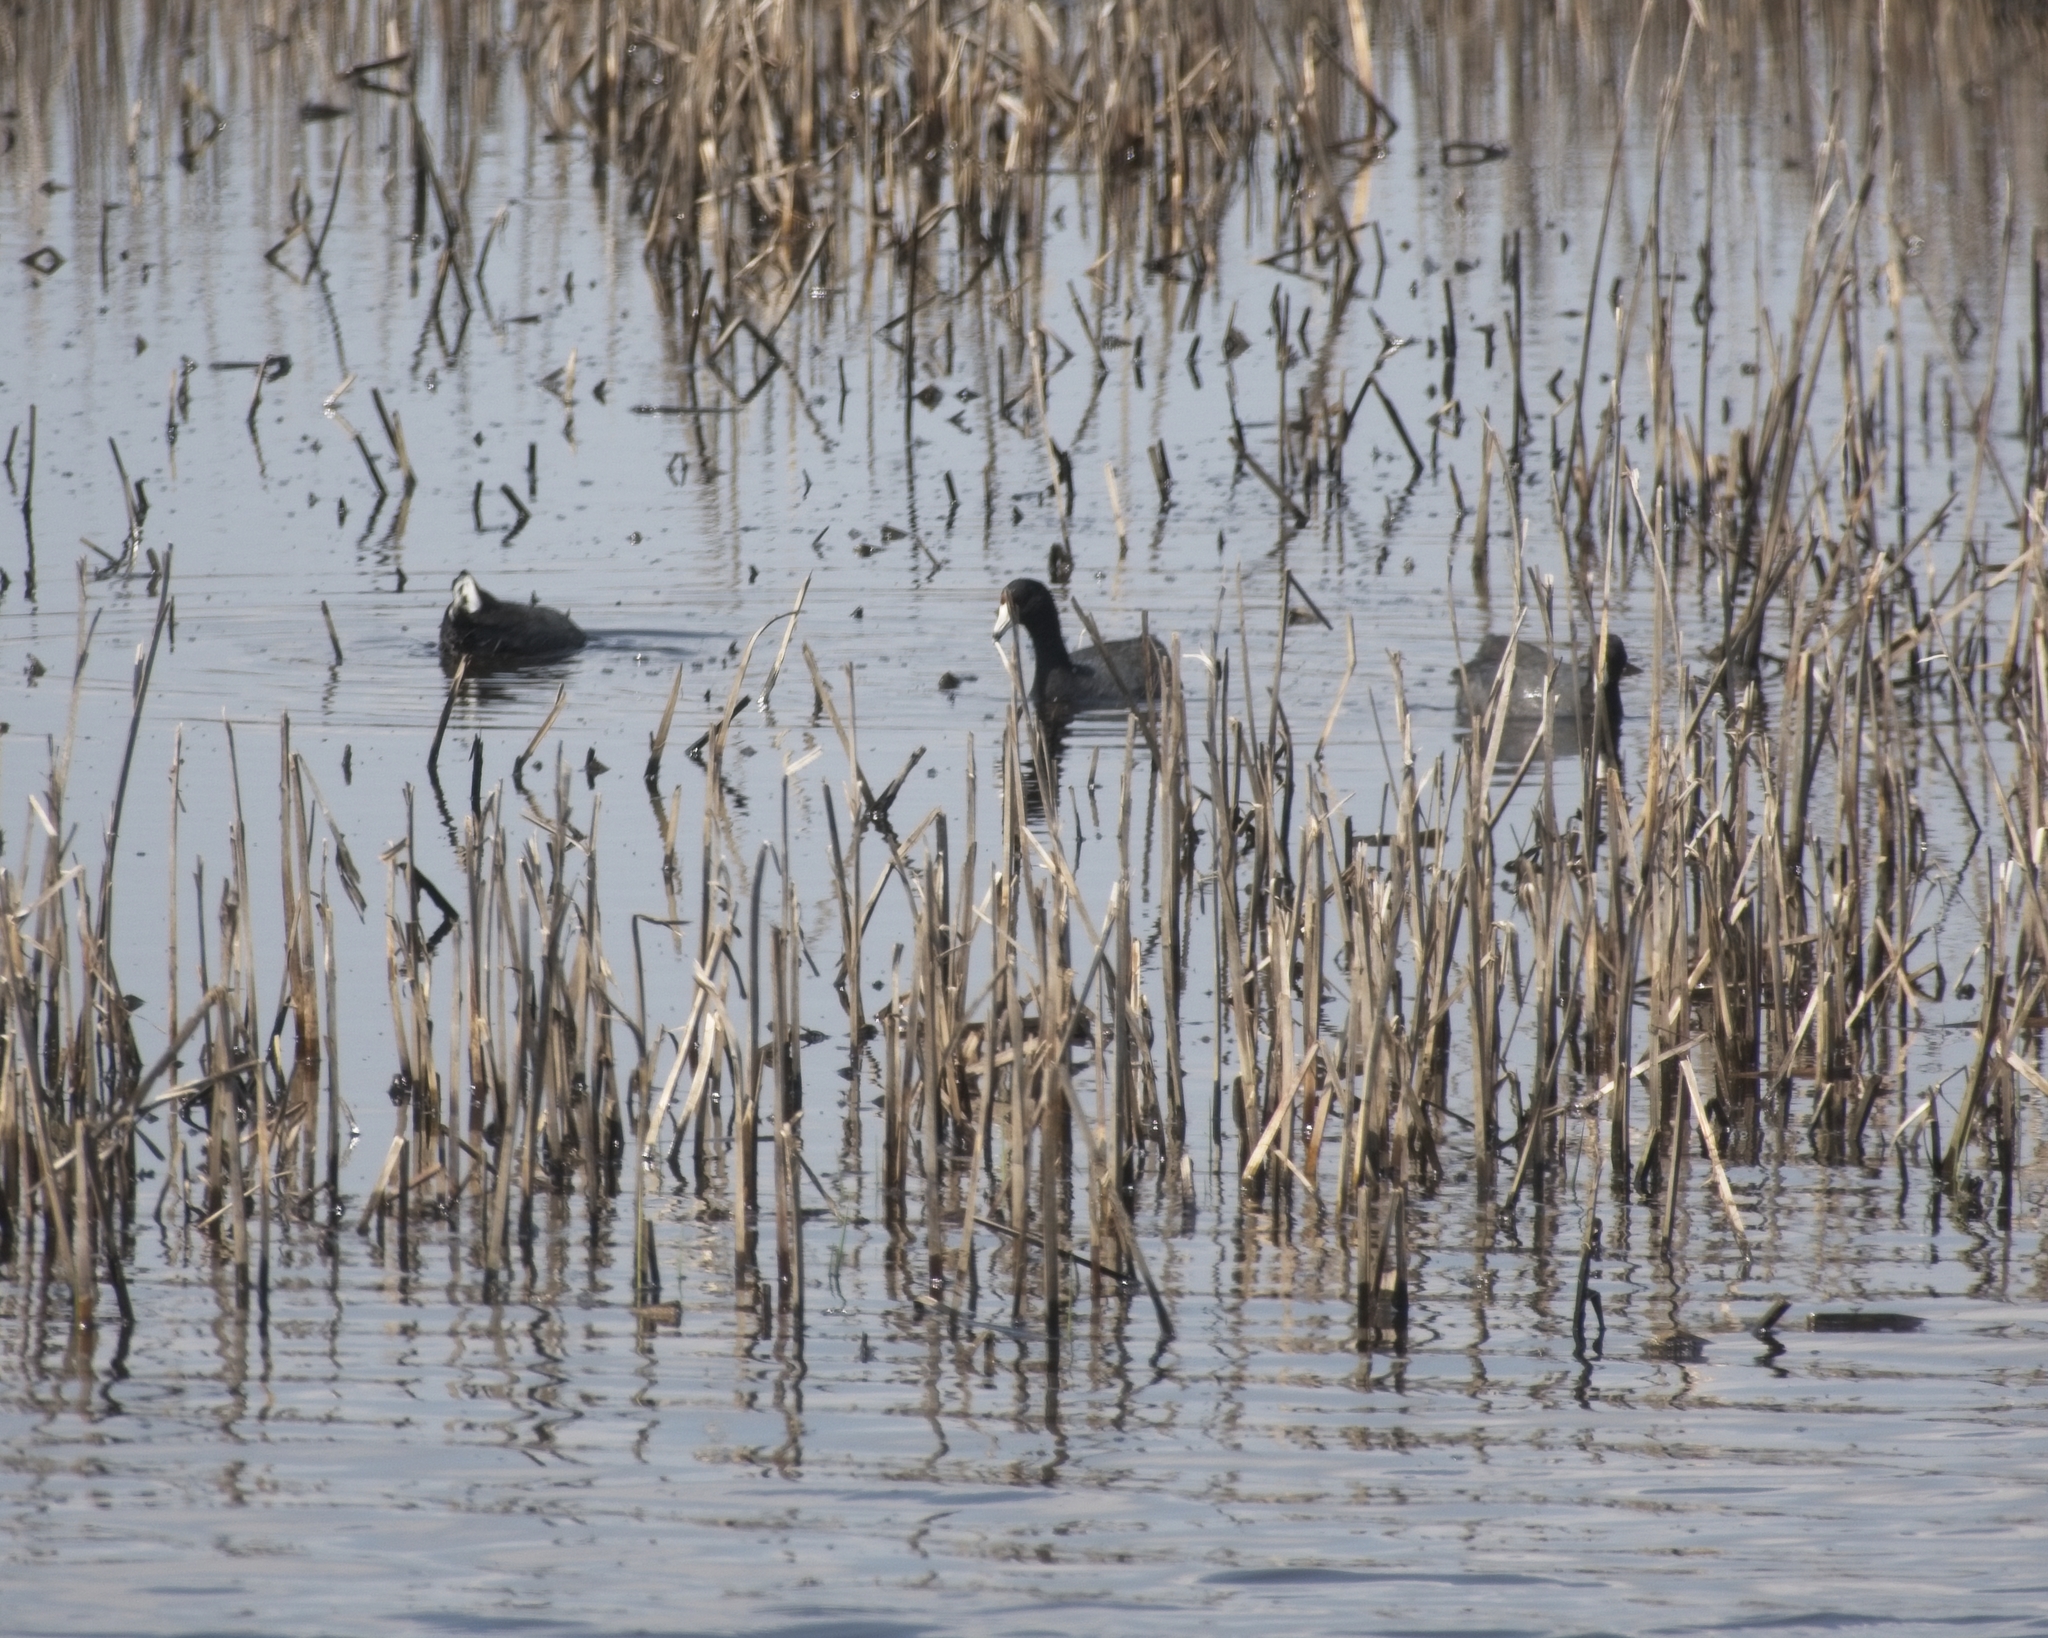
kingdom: Animalia
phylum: Chordata
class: Aves
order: Gruiformes
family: Rallidae
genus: Fulica
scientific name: Fulica americana
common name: American coot
